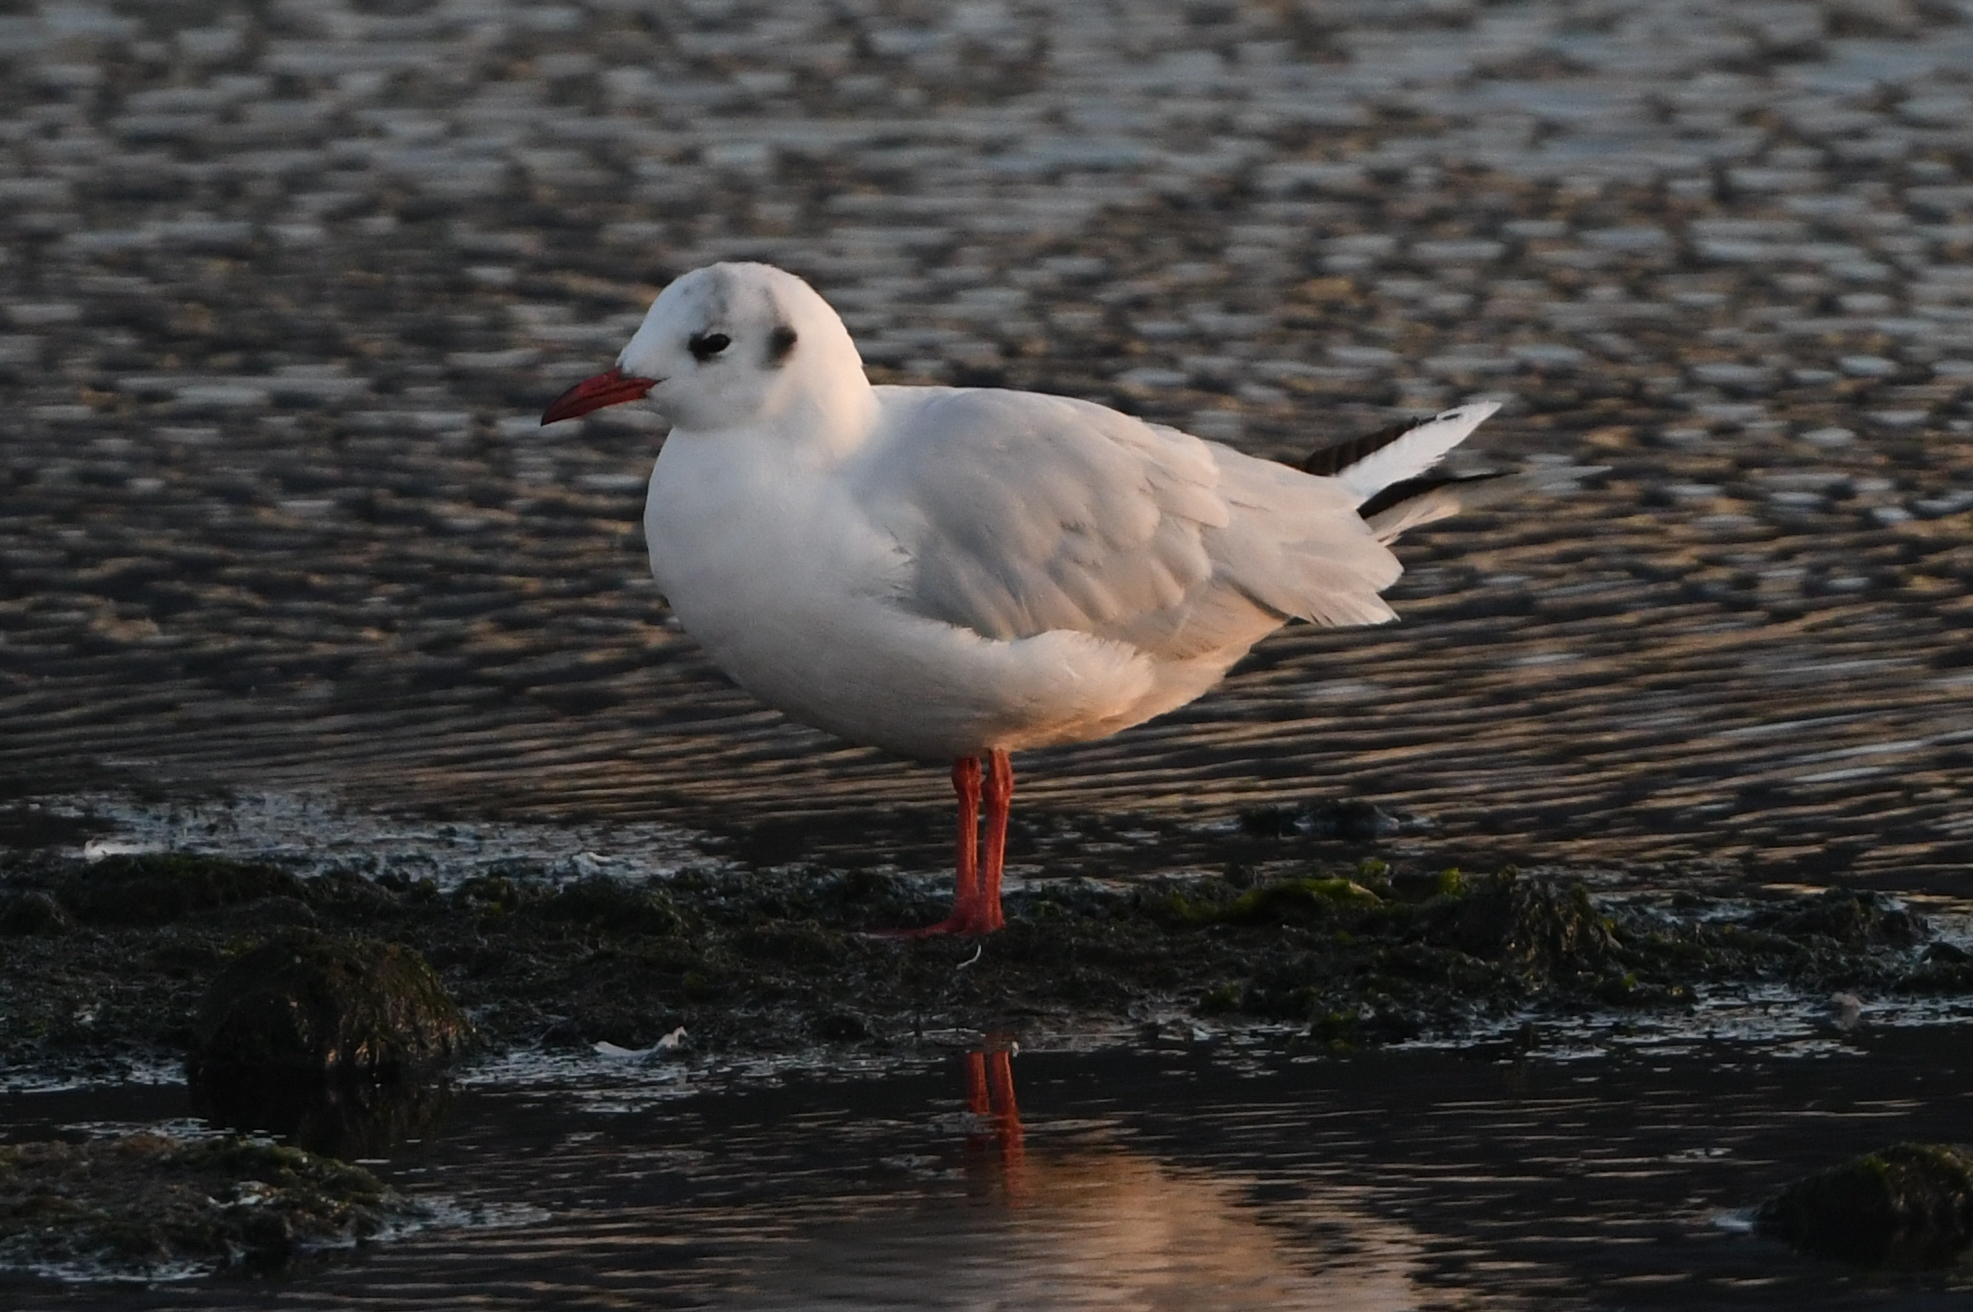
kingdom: Animalia
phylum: Chordata
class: Aves
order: Charadriiformes
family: Laridae
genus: Chroicocephalus
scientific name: Chroicocephalus maculipennis
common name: Brown-hooded gull
